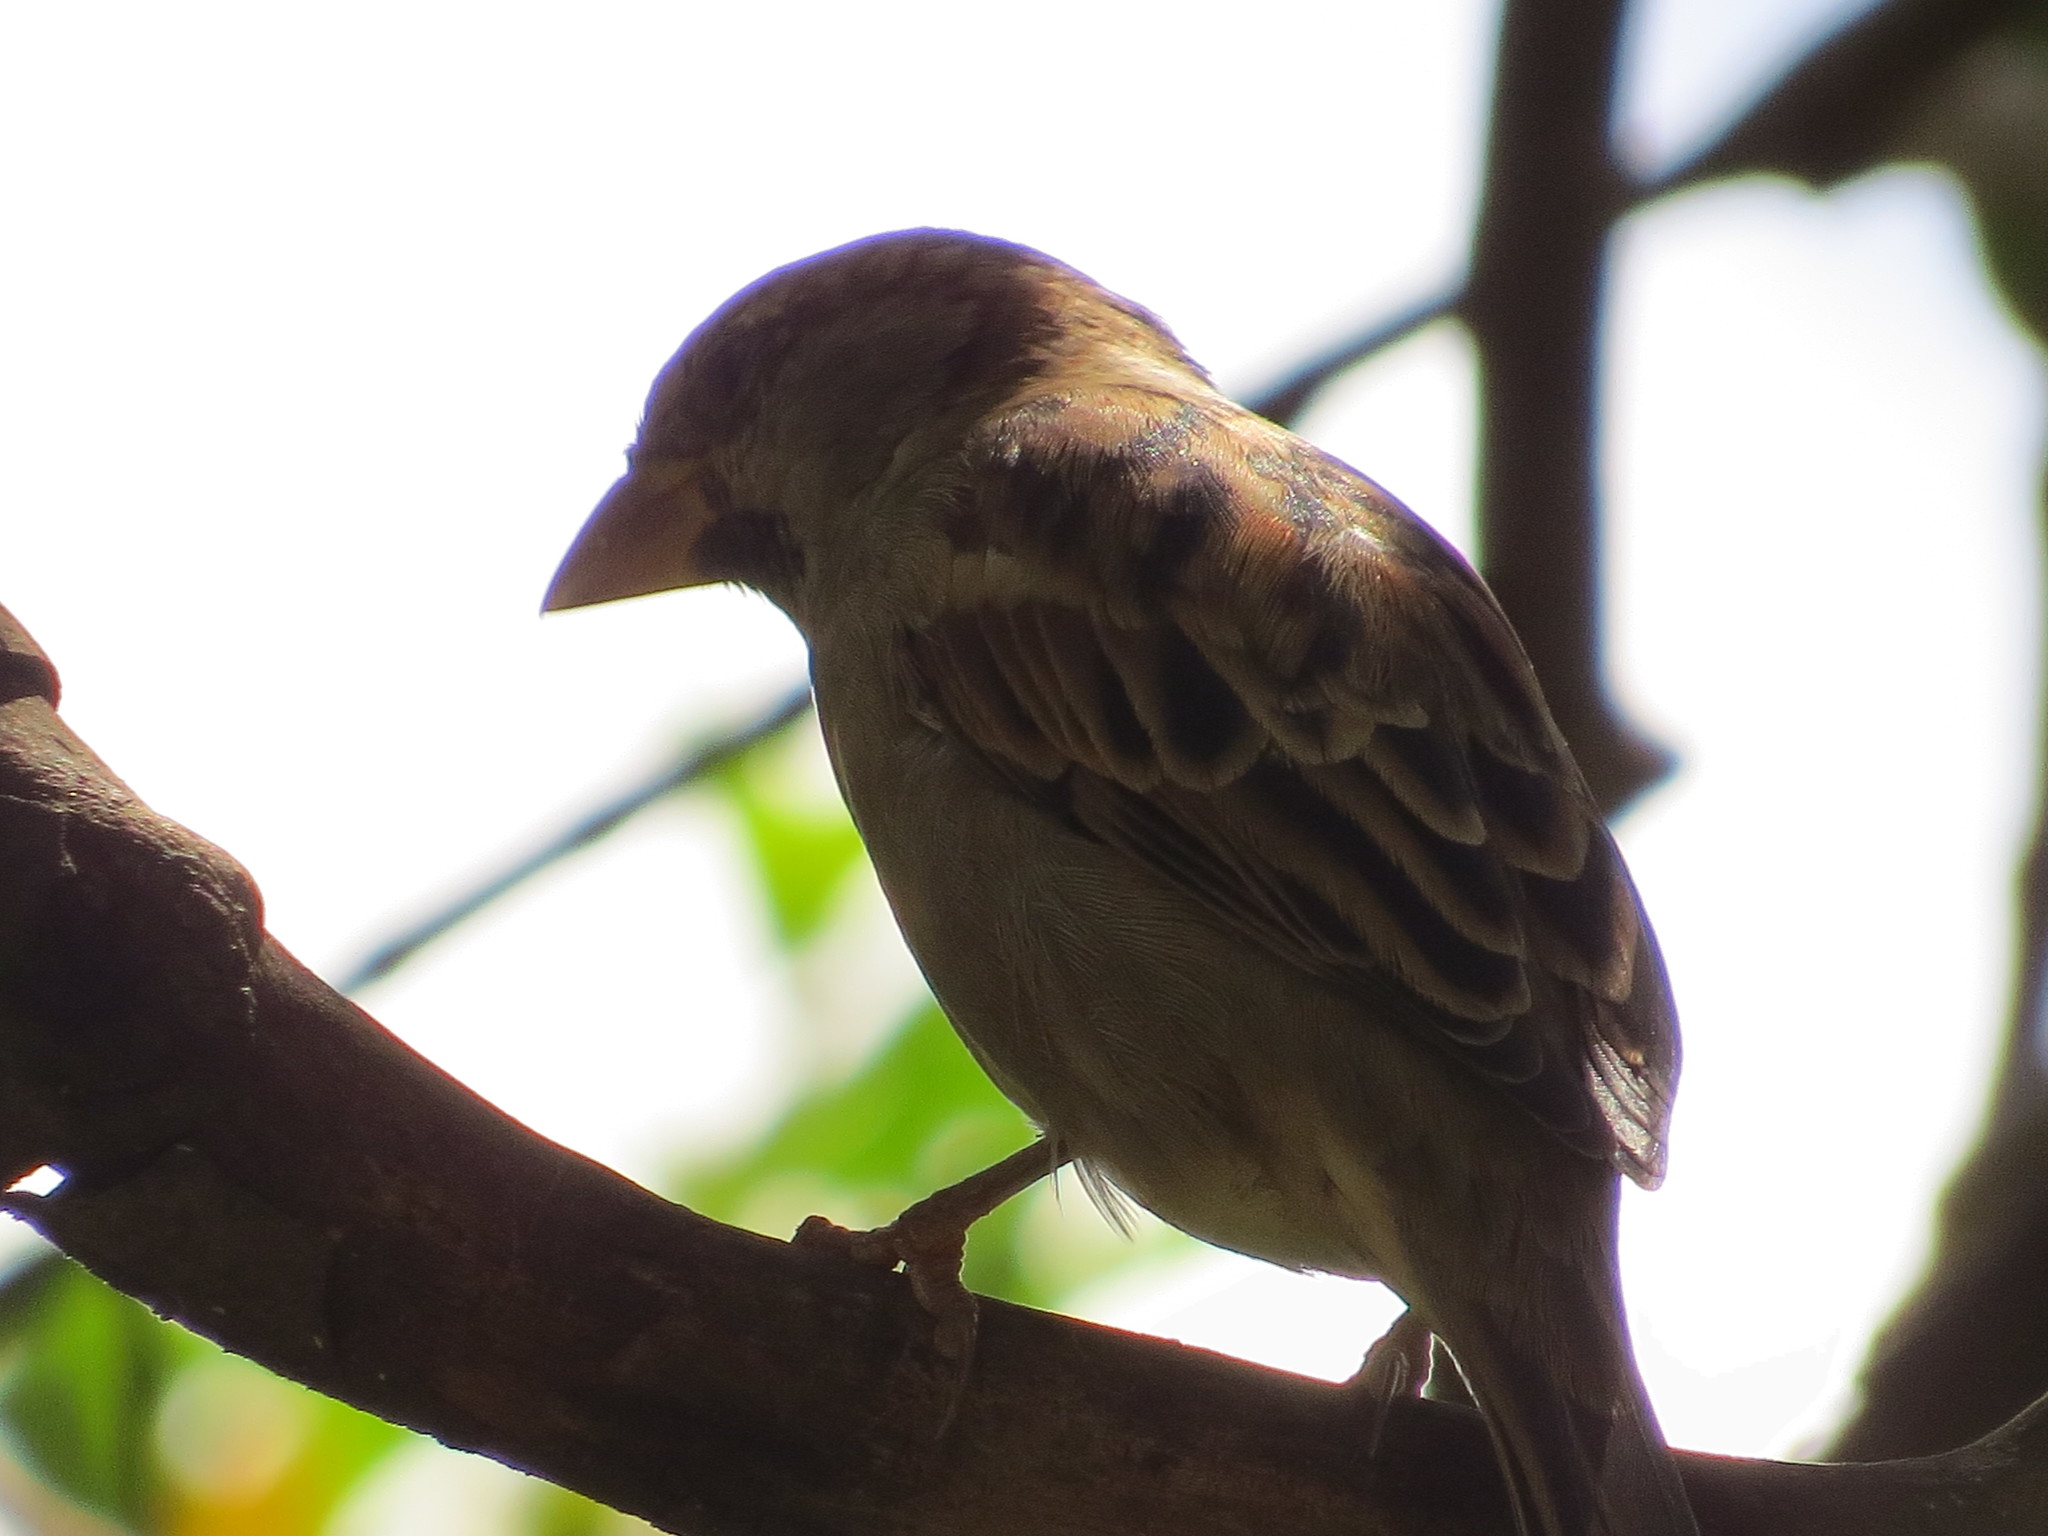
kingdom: Animalia
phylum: Chordata
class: Aves
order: Passeriformes
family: Passeridae
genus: Passer
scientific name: Passer domesticus
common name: House sparrow
